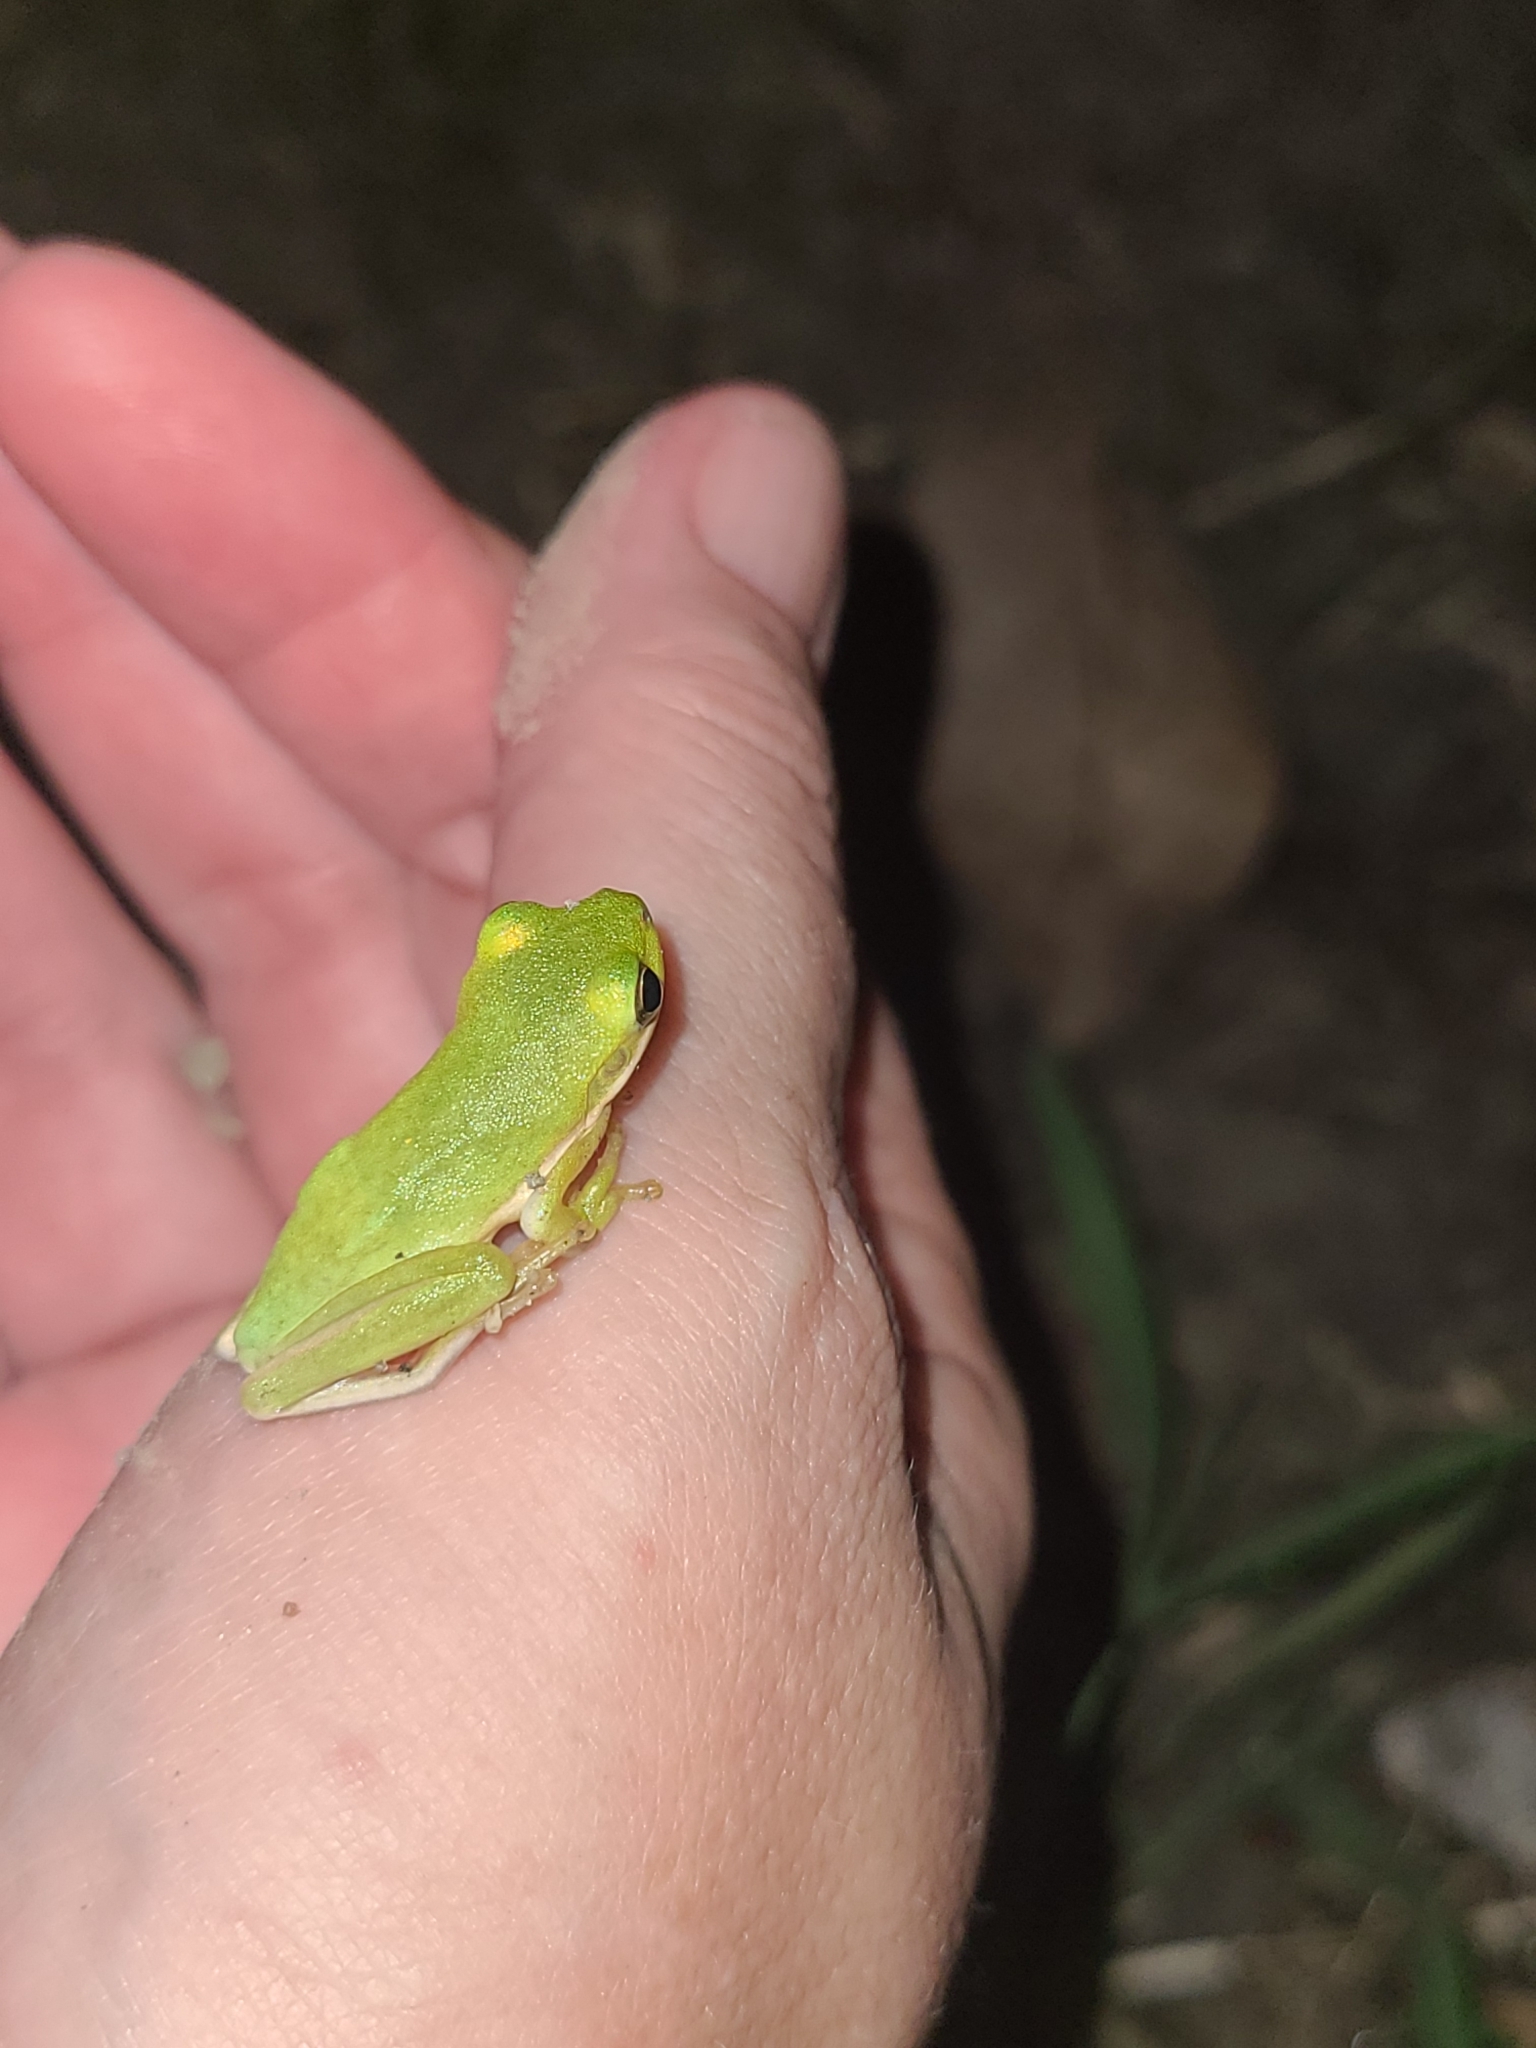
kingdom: Animalia
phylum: Chordata
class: Amphibia
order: Anura
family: Hylidae
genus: Dryophytes
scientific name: Dryophytes cinereus
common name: Green treefrog
